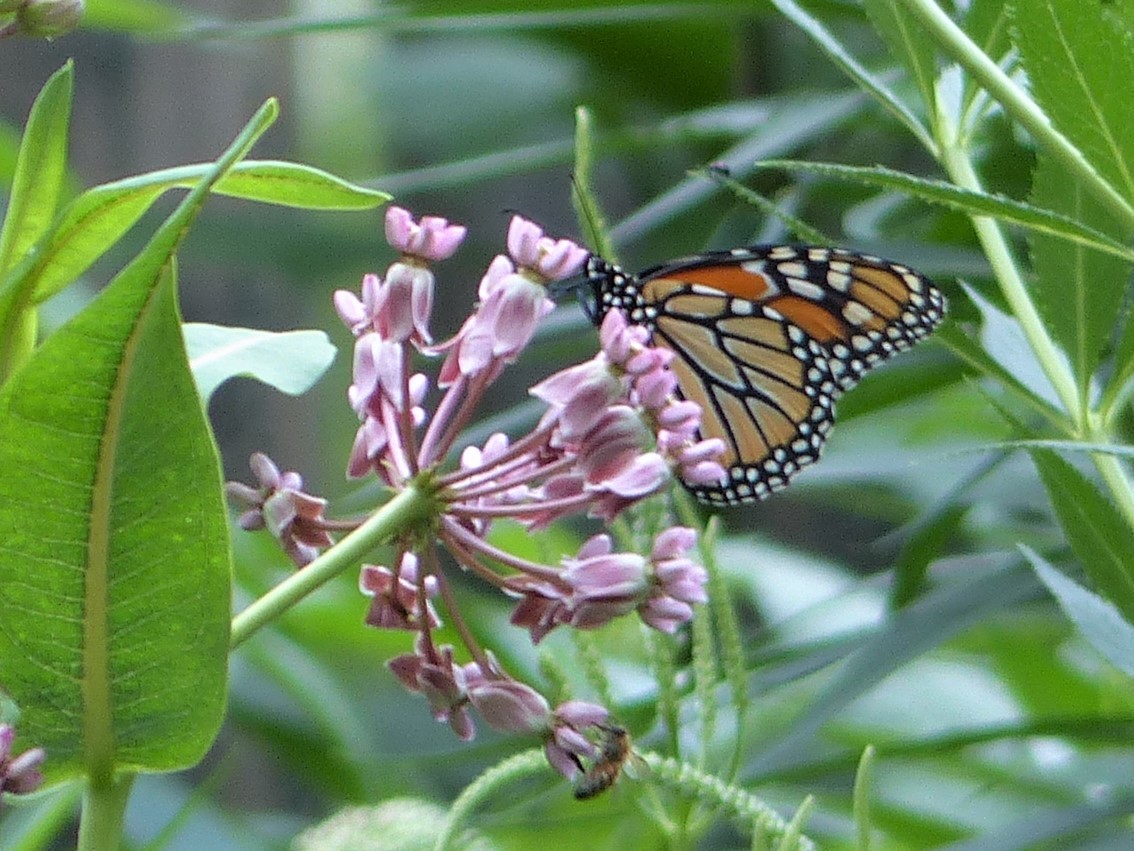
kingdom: Animalia
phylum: Arthropoda
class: Insecta
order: Lepidoptera
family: Nymphalidae
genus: Danaus
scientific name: Danaus plexippus
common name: Monarch
